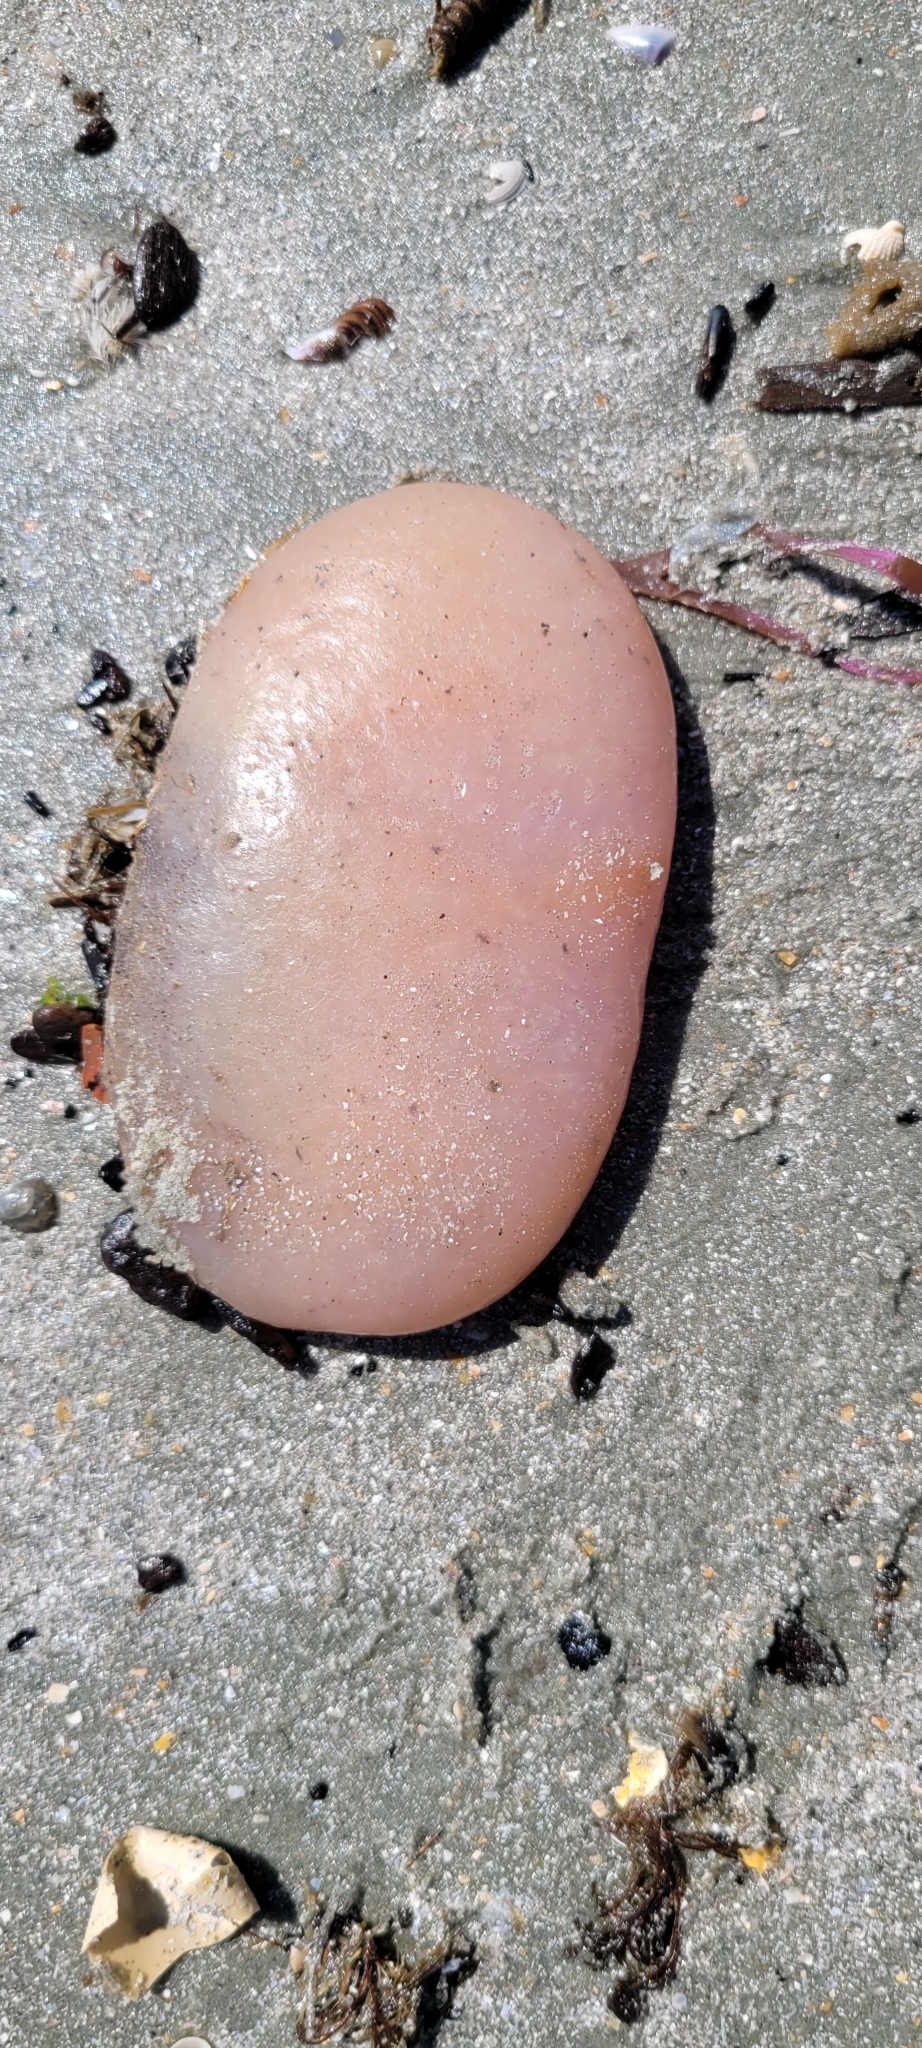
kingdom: Animalia
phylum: Chordata
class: Ascidiacea
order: Aplousobranchia
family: Polyclinidae
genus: Aplidium
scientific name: Aplidium stellatum
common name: Atlantic sea pork
